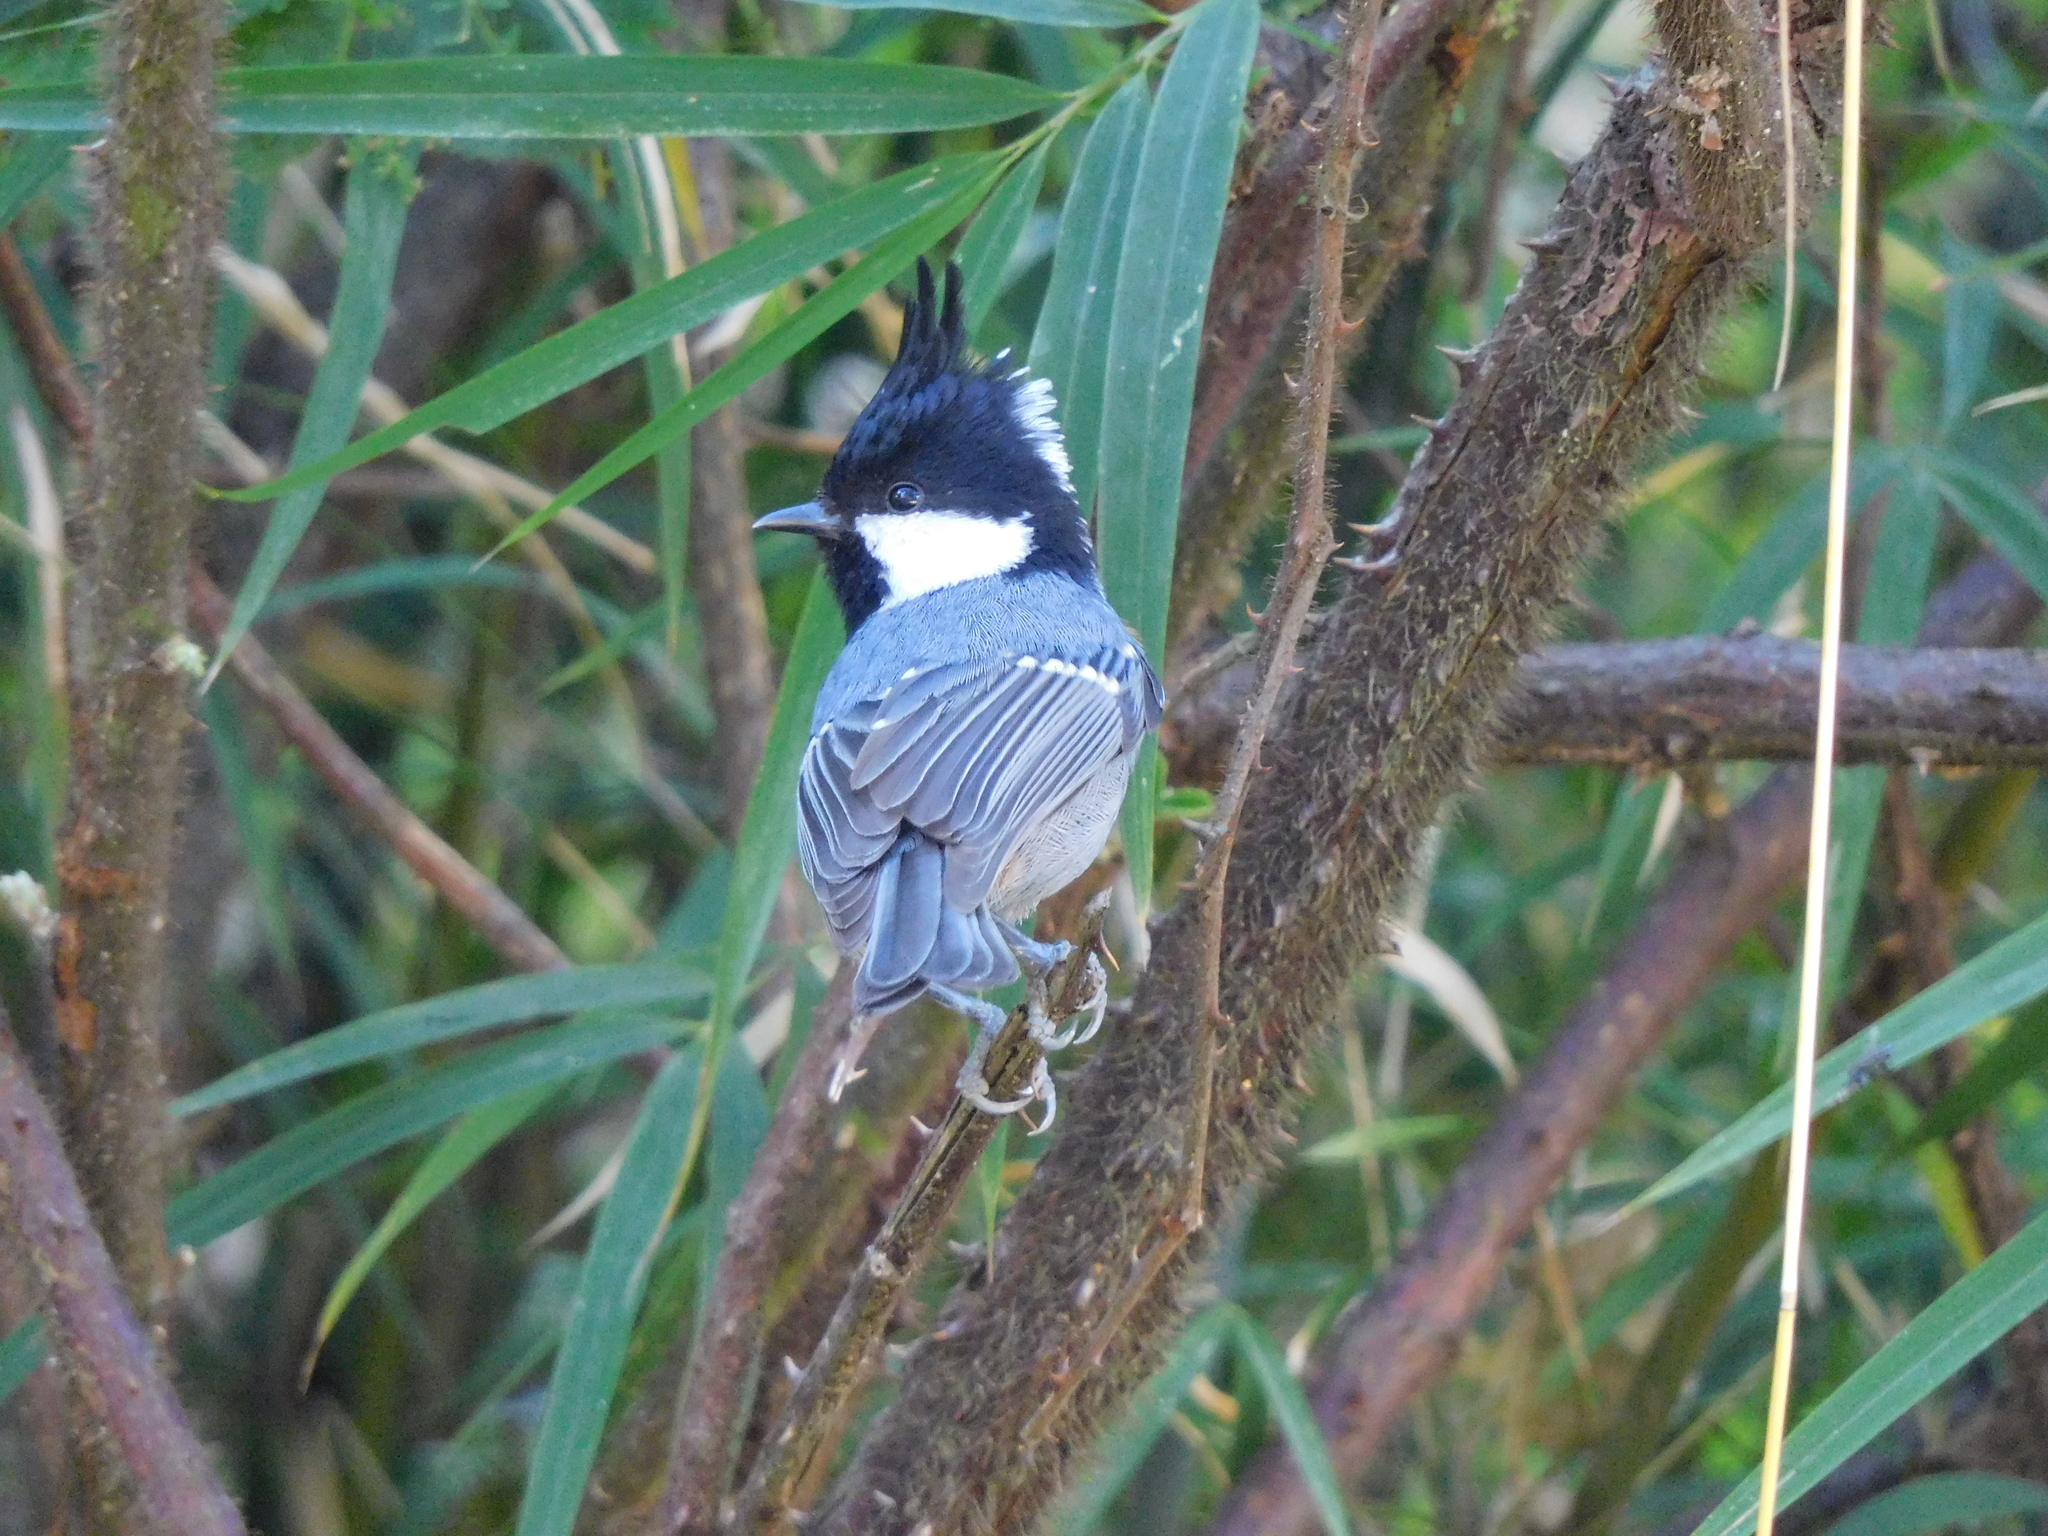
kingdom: Animalia
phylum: Chordata
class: Aves
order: Passeriformes
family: Paridae
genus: Periparus
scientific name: Periparus ater
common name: Coal tit
